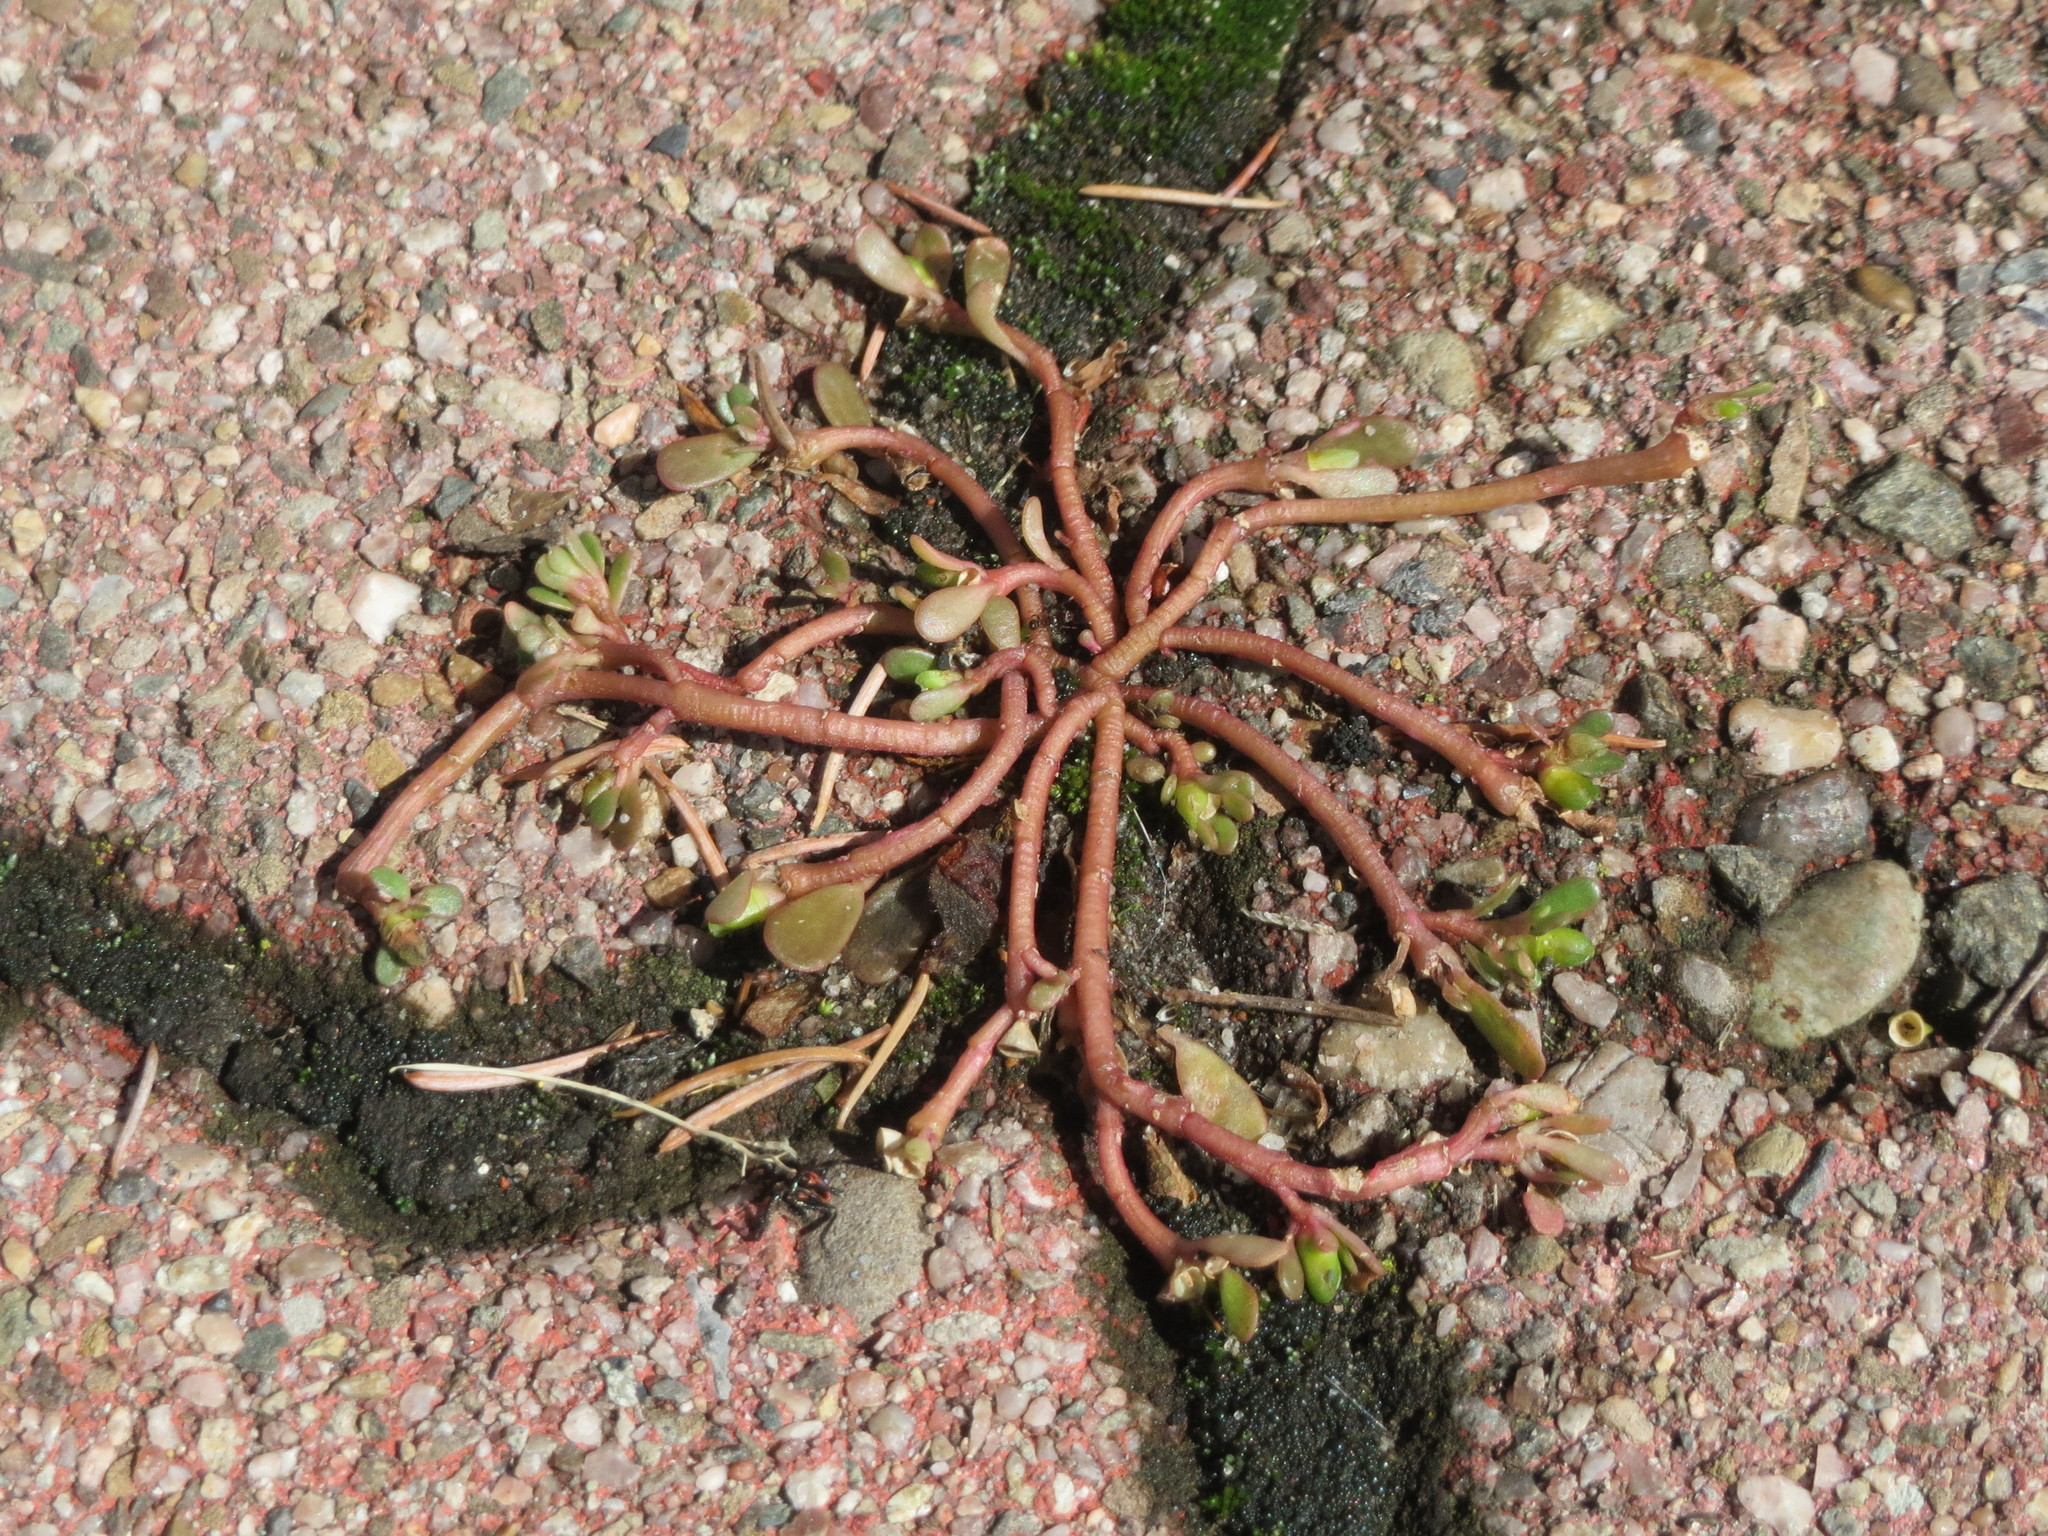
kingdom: Plantae
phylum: Tracheophyta
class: Magnoliopsida
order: Caryophyllales
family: Portulacaceae
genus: Portulaca
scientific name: Portulaca oleracea
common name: Common purslane
